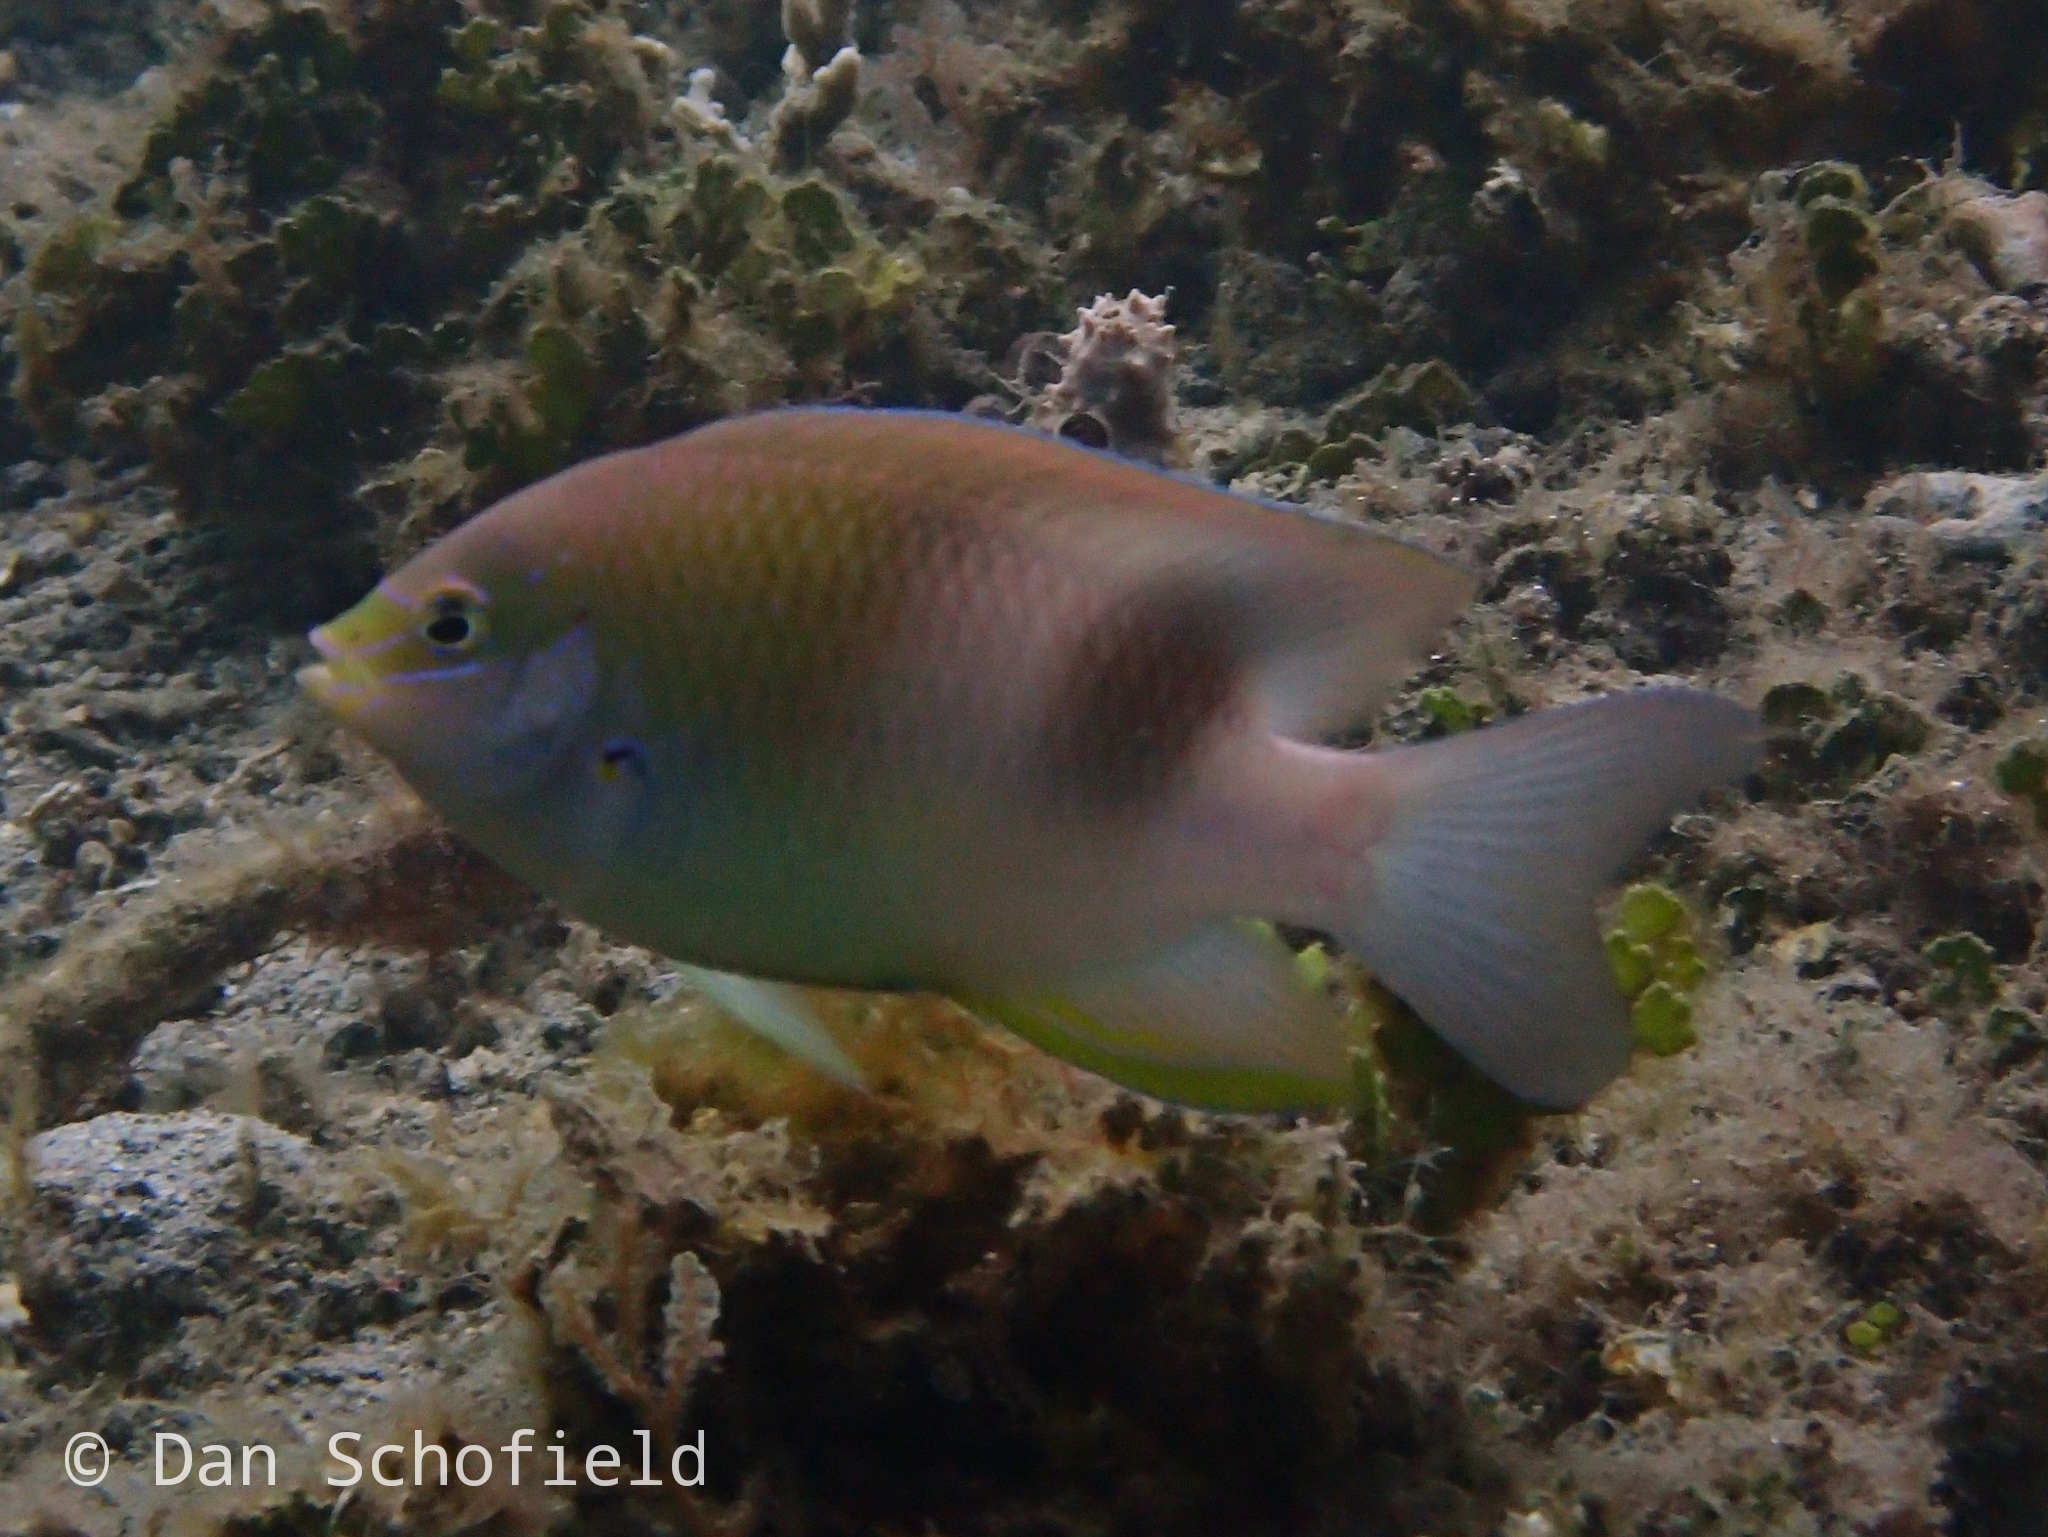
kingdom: Animalia
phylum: Chordata
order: Perciformes
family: Pomacentridae
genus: Dischistodus
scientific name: Dischistodus prosopotaenia
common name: Honey-head damsel
